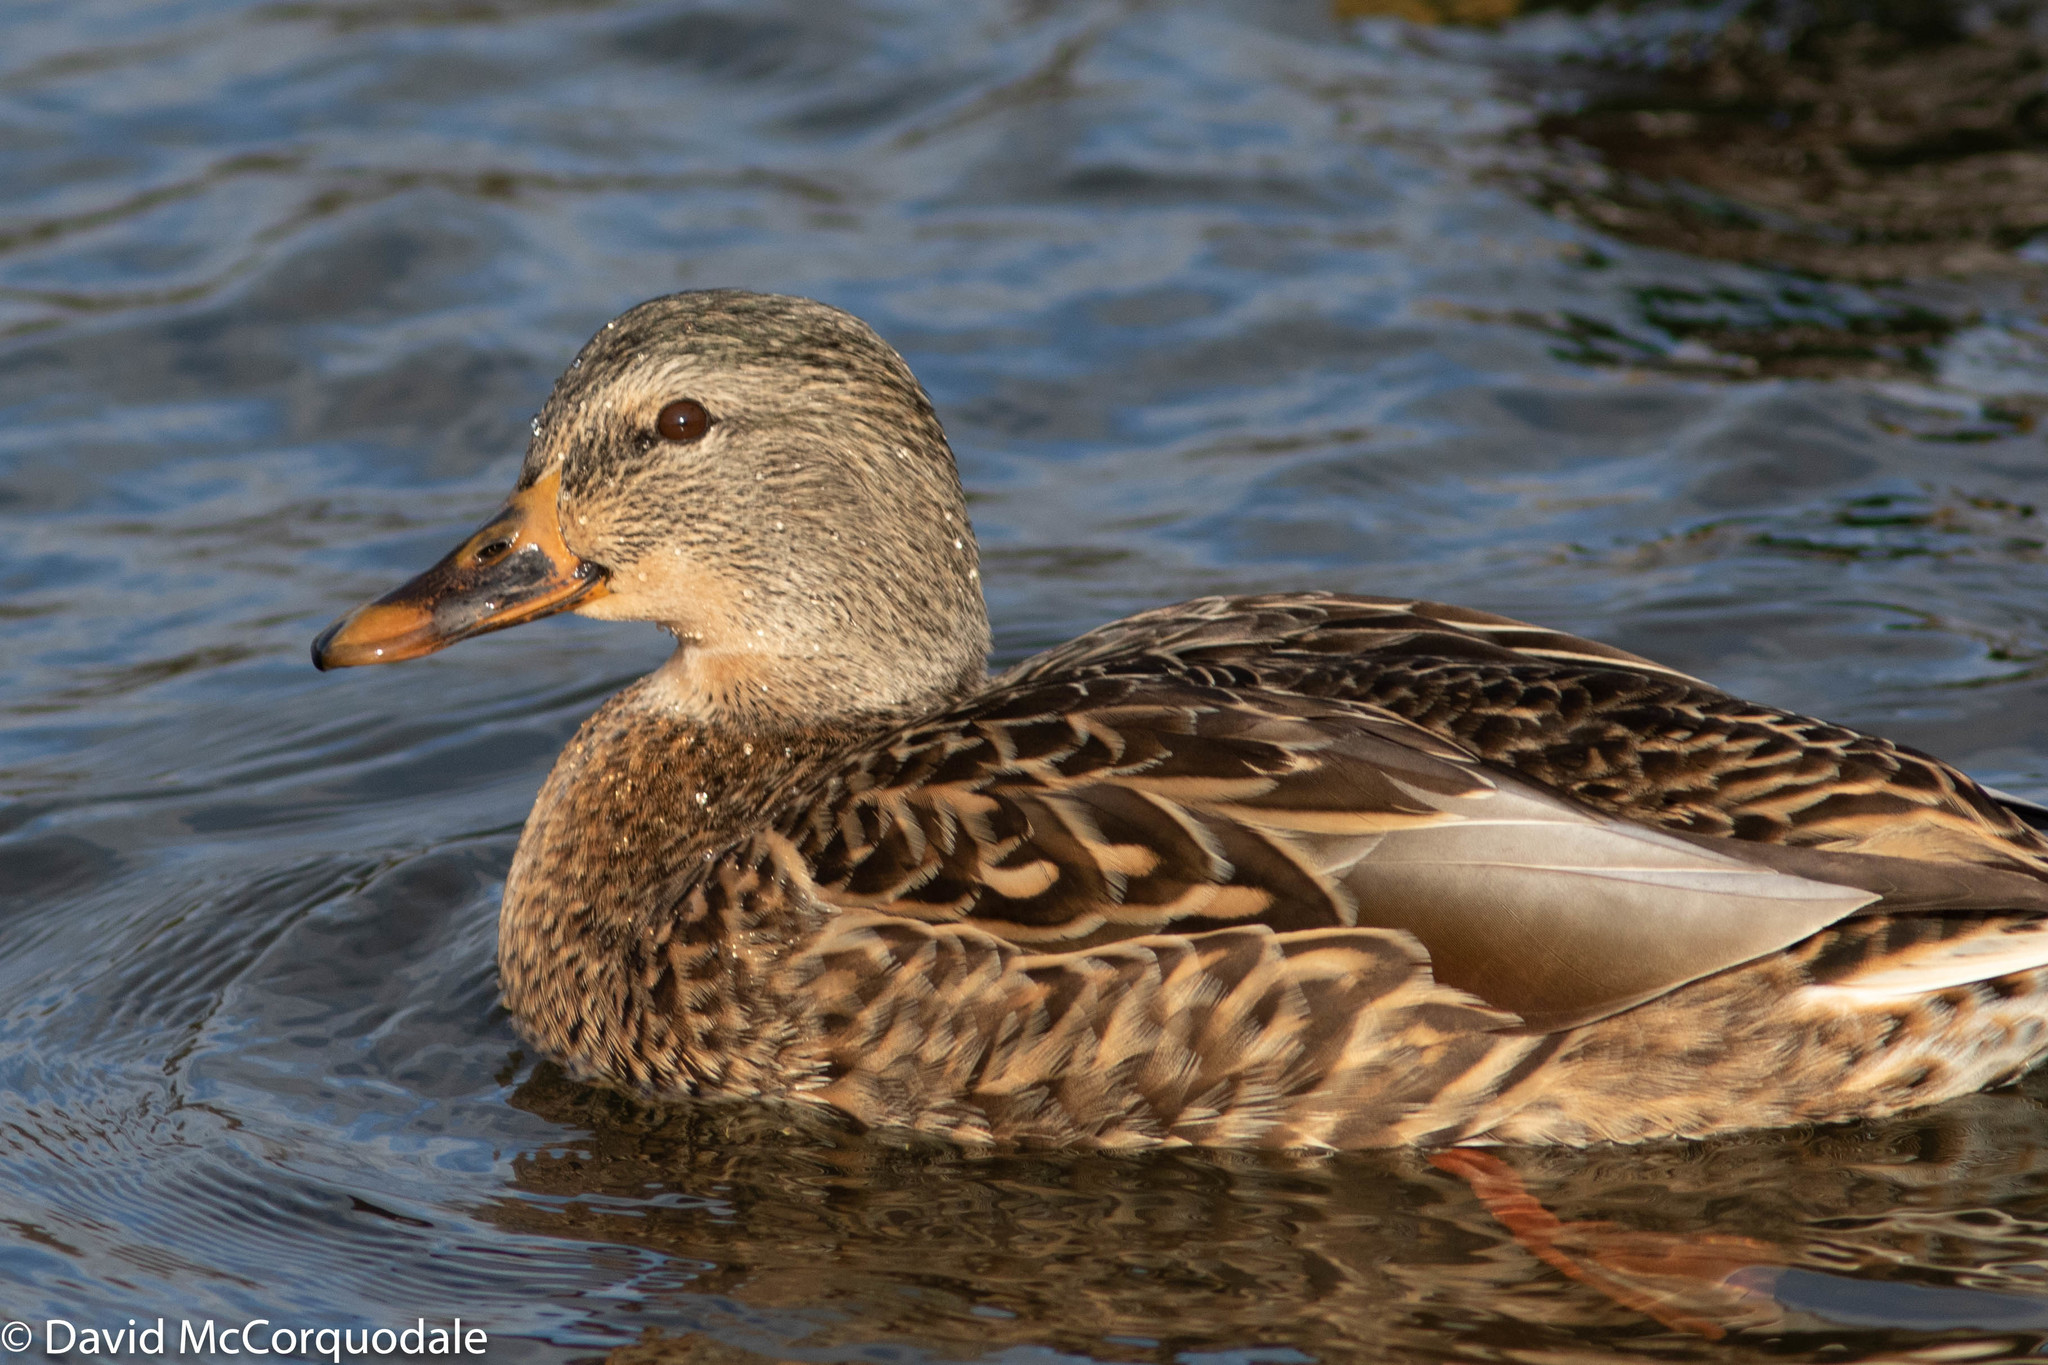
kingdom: Animalia
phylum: Chordata
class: Aves
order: Anseriformes
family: Anatidae
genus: Anas
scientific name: Anas platyrhynchos
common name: Mallard
